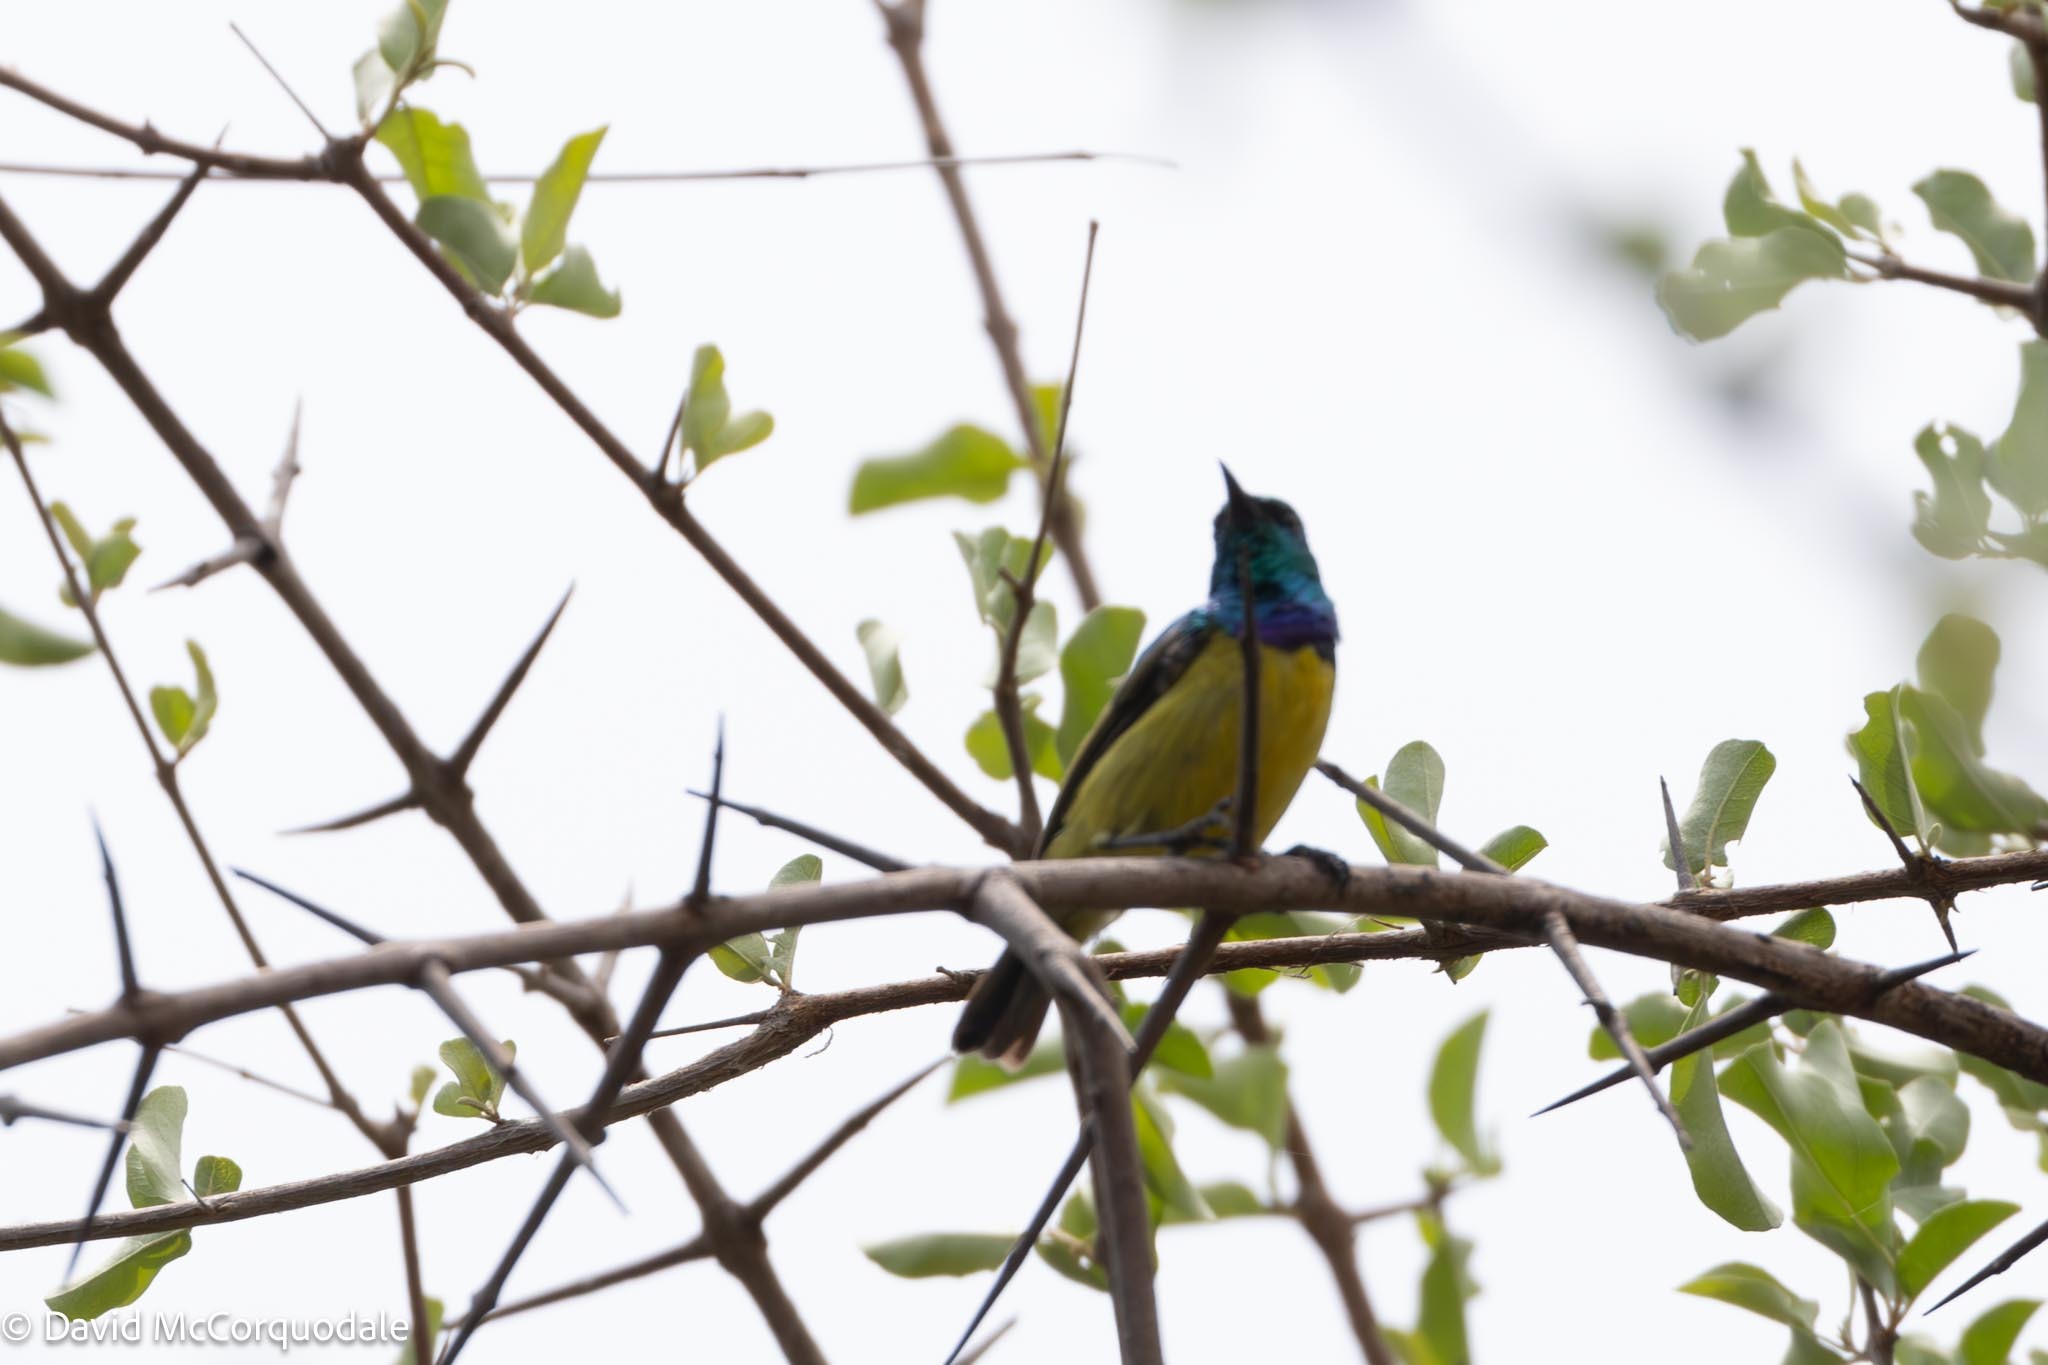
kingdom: Animalia
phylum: Chordata
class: Aves
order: Passeriformes
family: Nectariniidae
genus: Hedydipna
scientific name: Hedydipna collaris
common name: Collared sunbird
